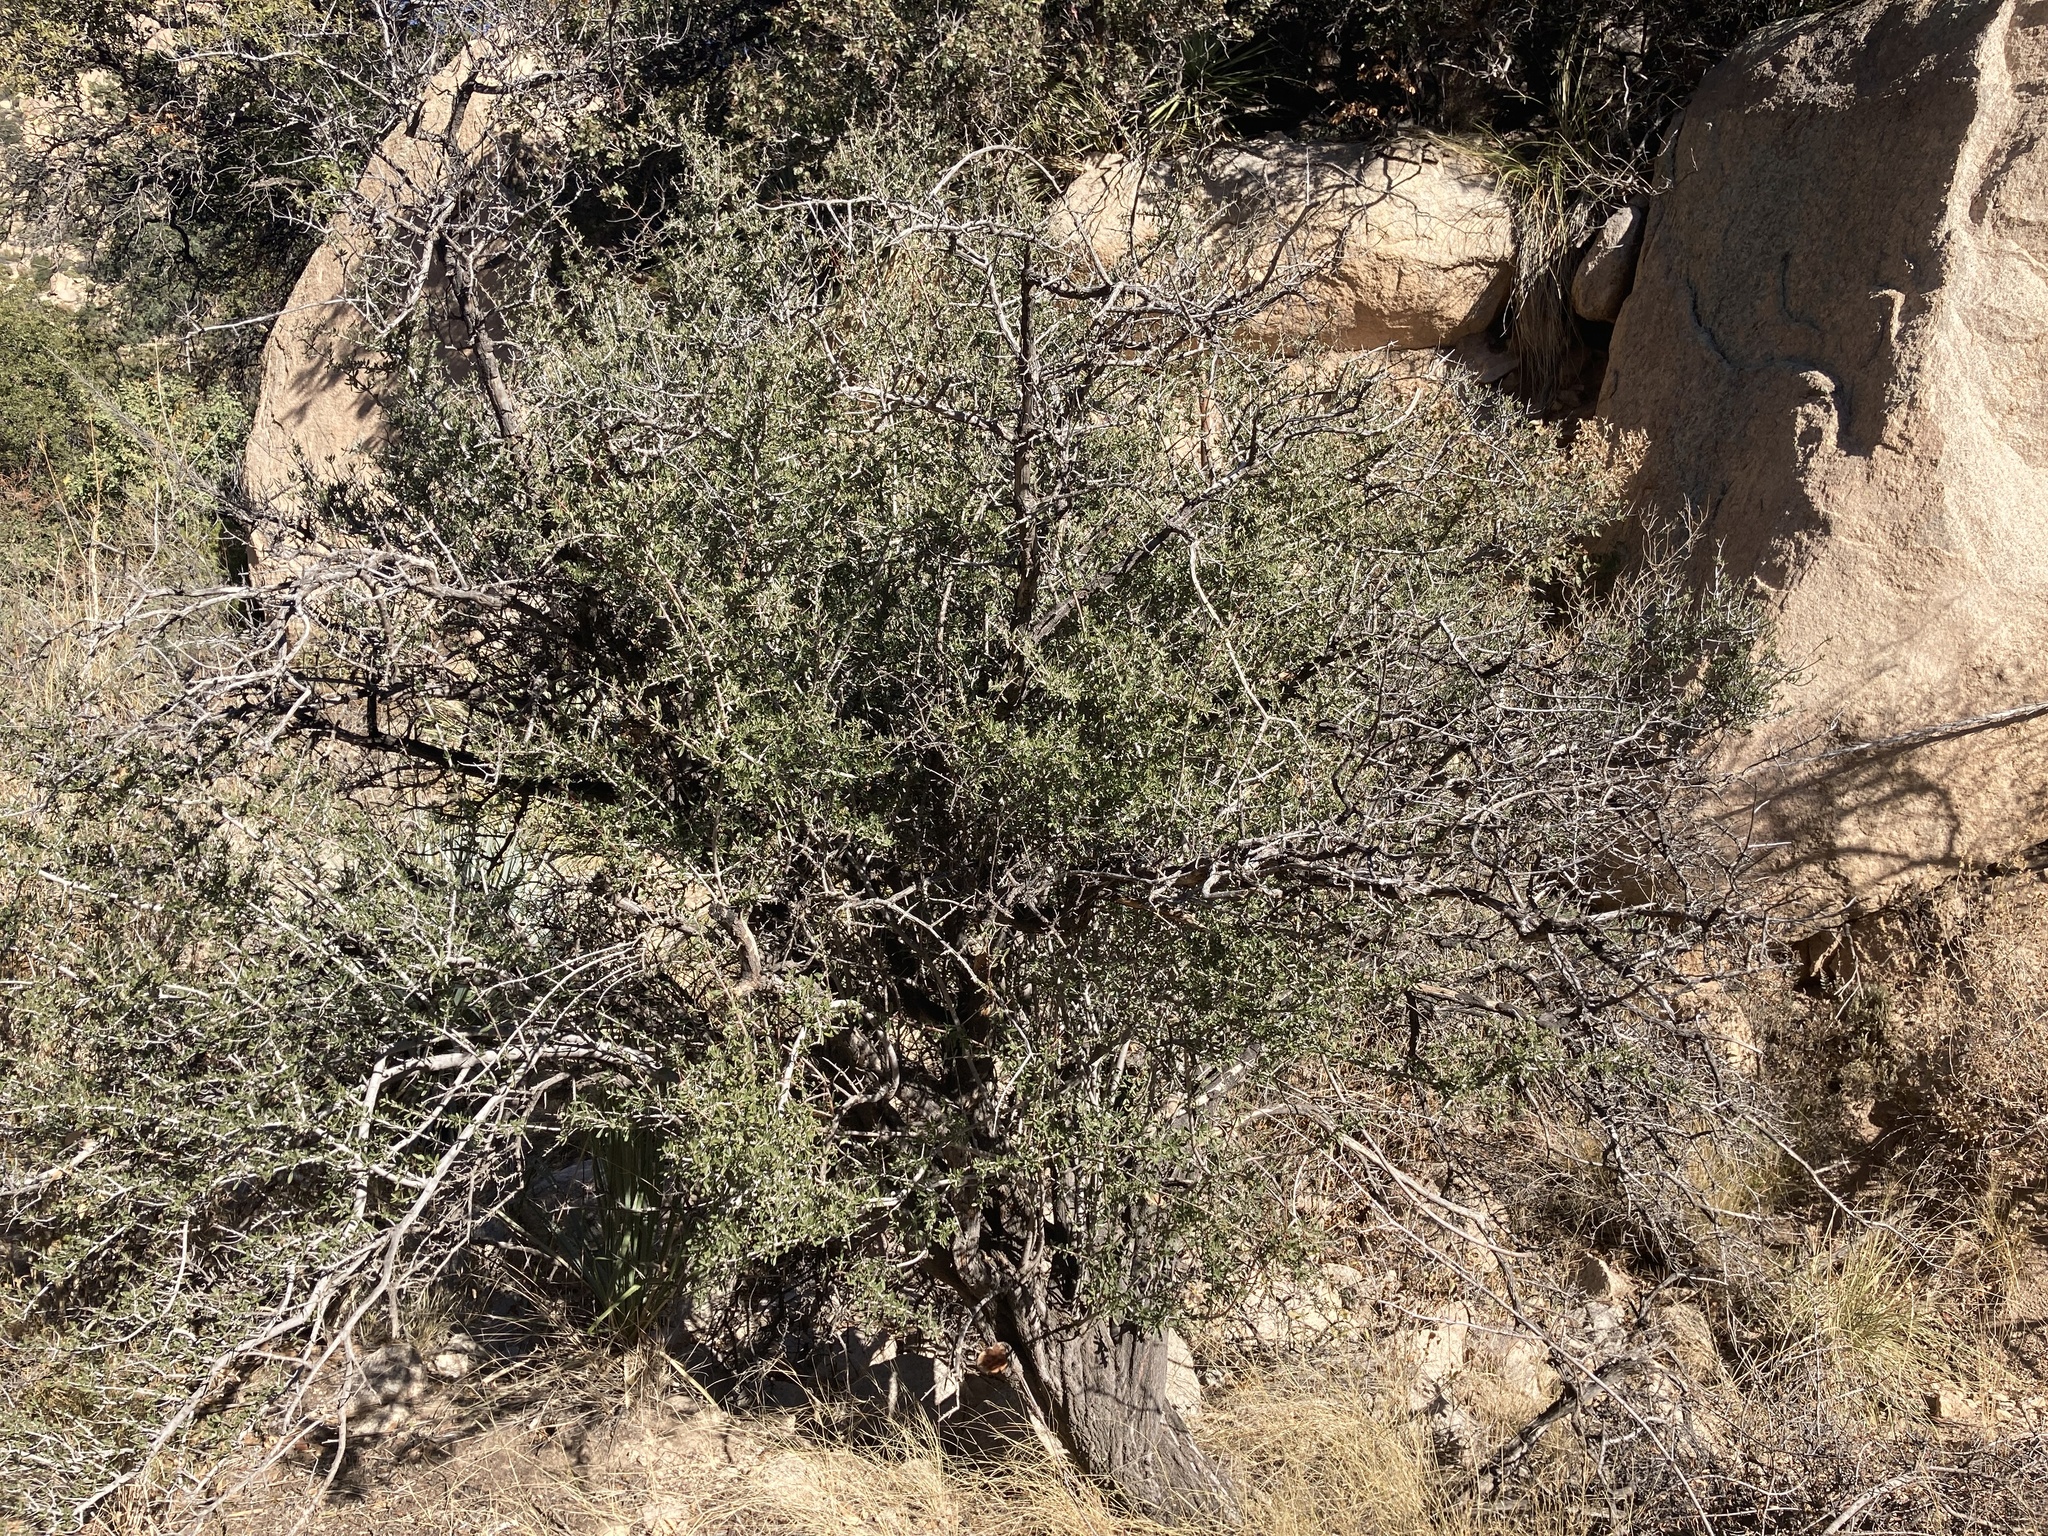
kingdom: Plantae
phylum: Tracheophyta
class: Magnoliopsida
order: Rosales
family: Rhamnaceae
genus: Ceanothus
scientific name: Ceanothus pauciflorus
